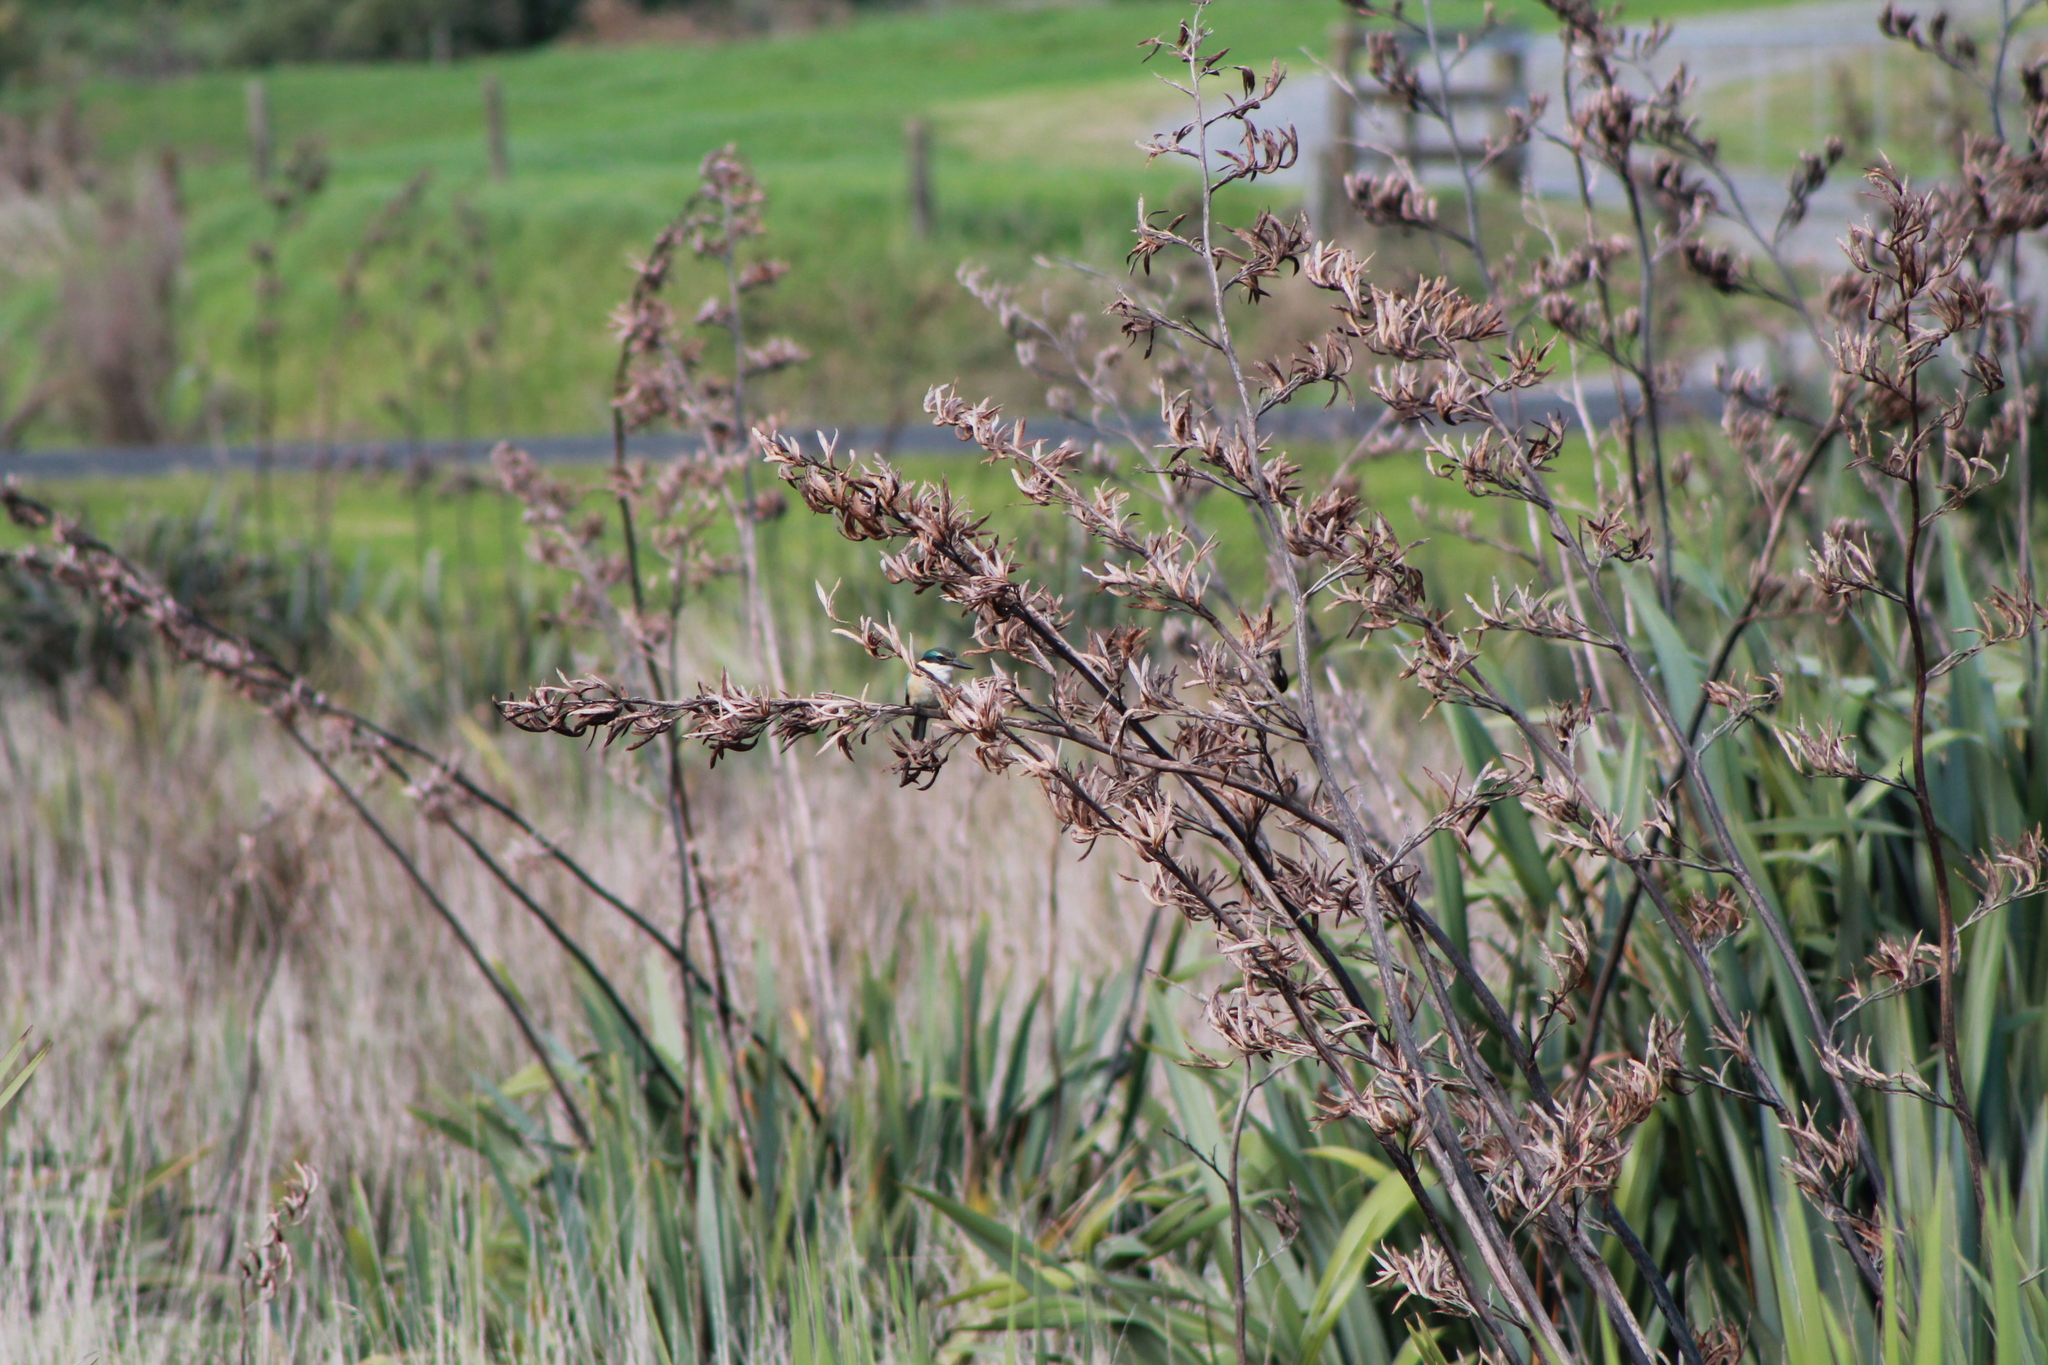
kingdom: Animalia
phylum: Chordata
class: Aves
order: Coraciiformes
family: Alcedinidae
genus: Todiramphus
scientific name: Todiramphus sanctus
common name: Sacred kingfisher
